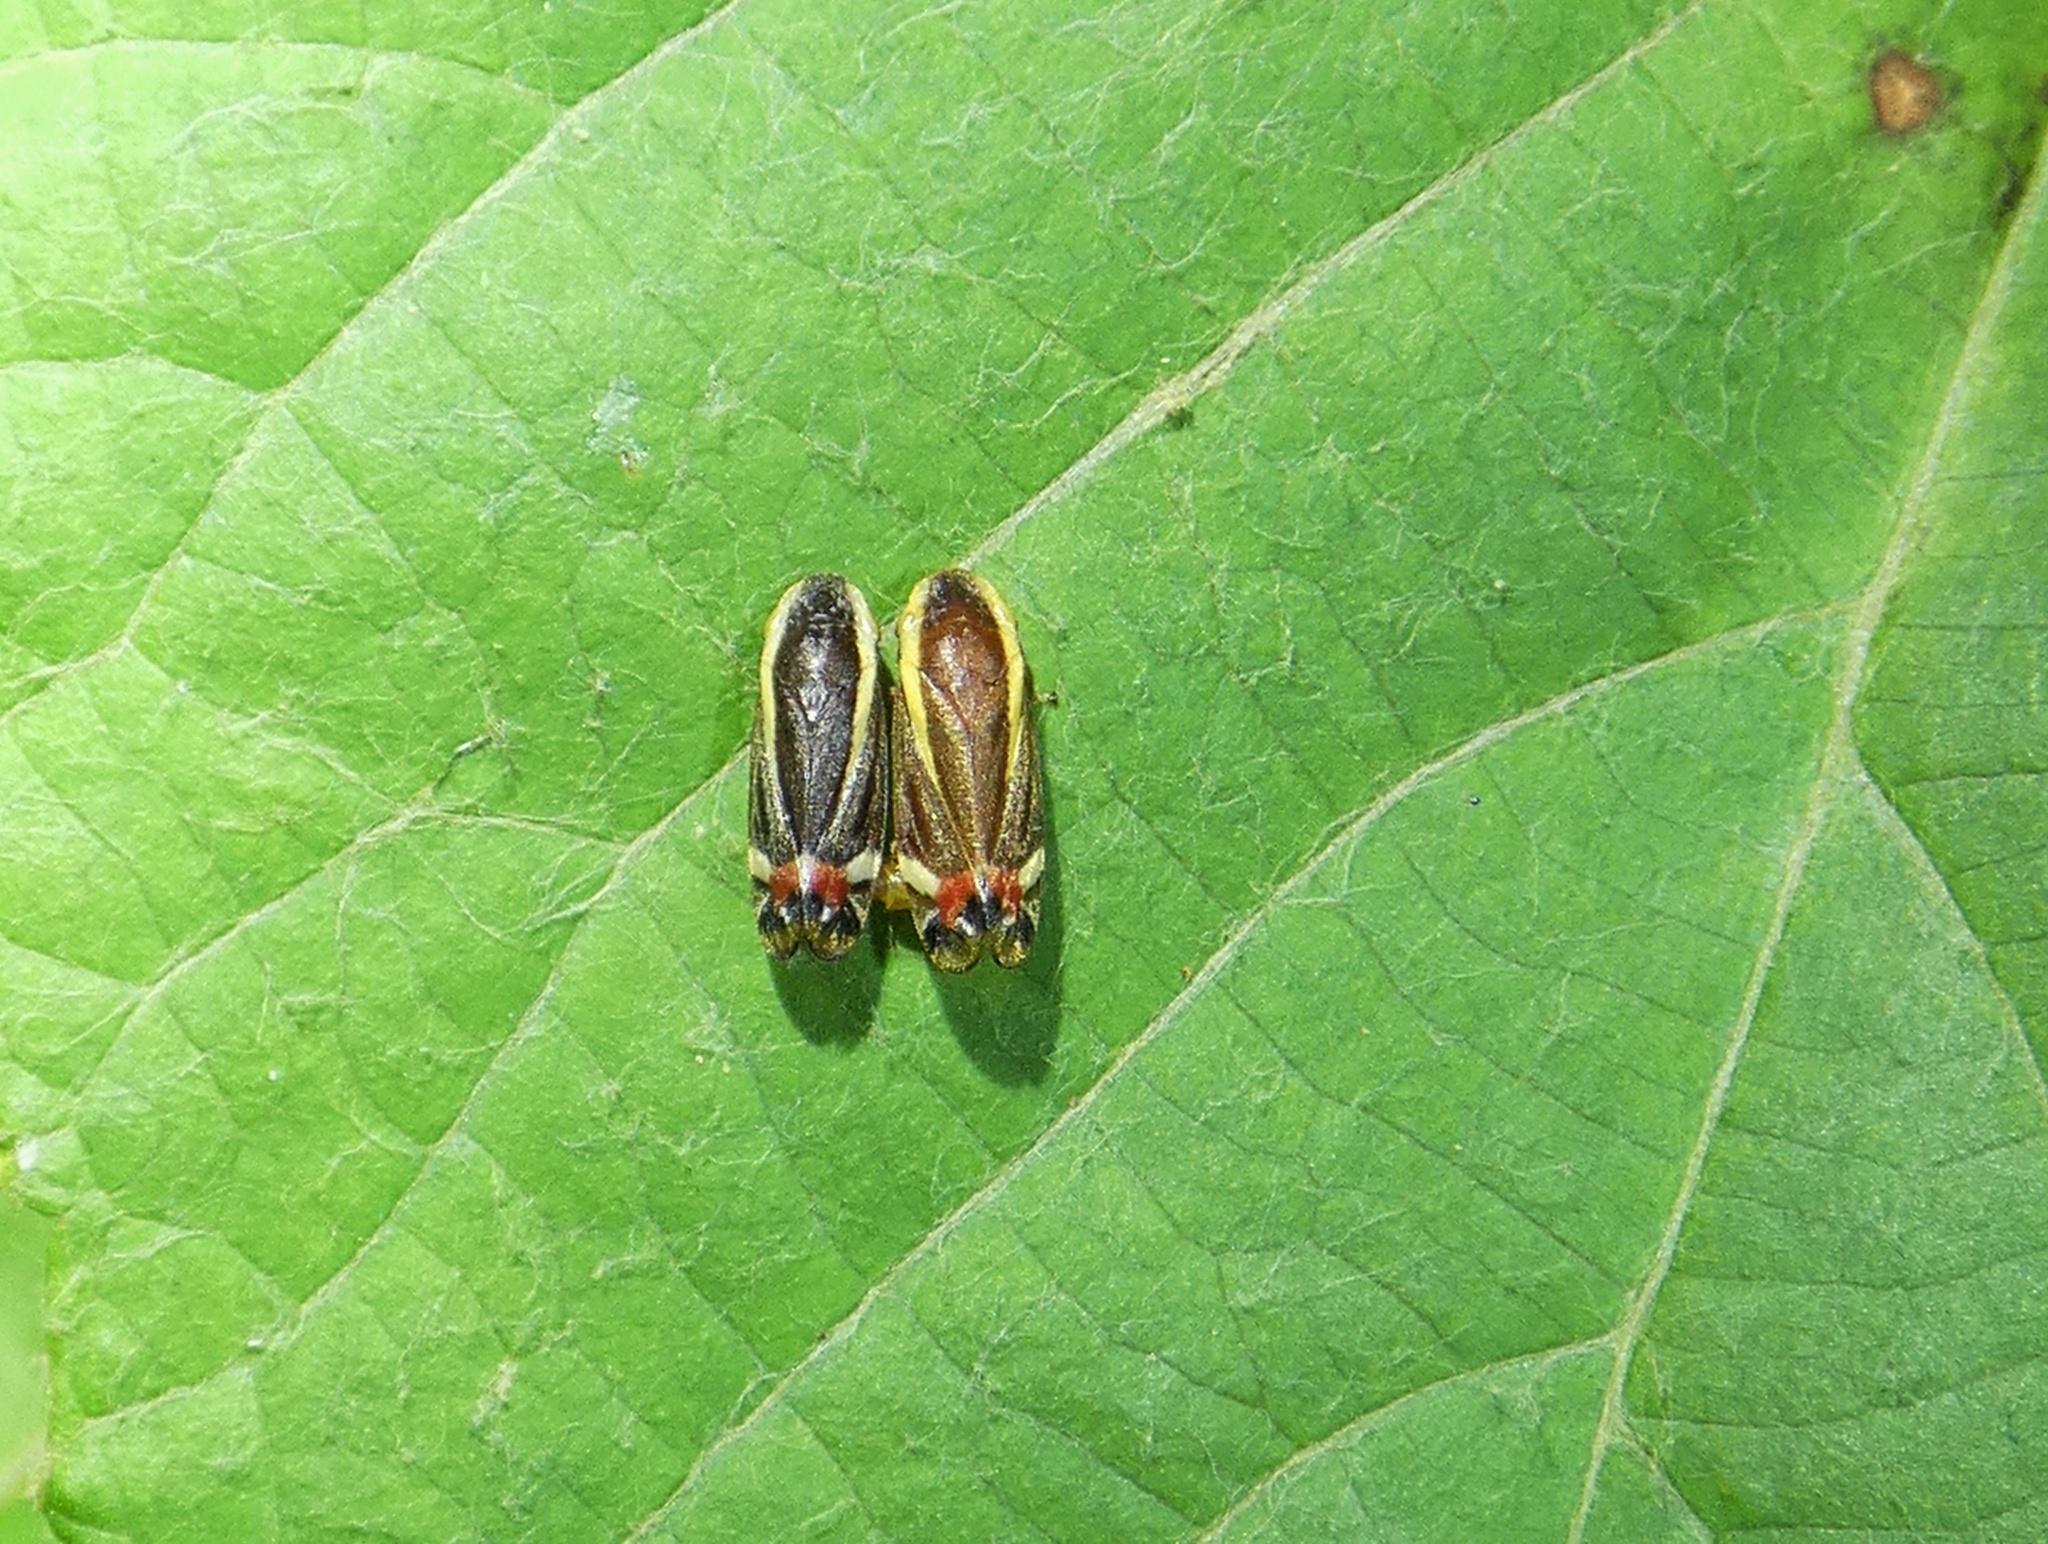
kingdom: Animalia
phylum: Arthropoda
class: Insecta
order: Hemiptera
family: Cercopidae
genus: Microsargane
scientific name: Microsargane vittata
